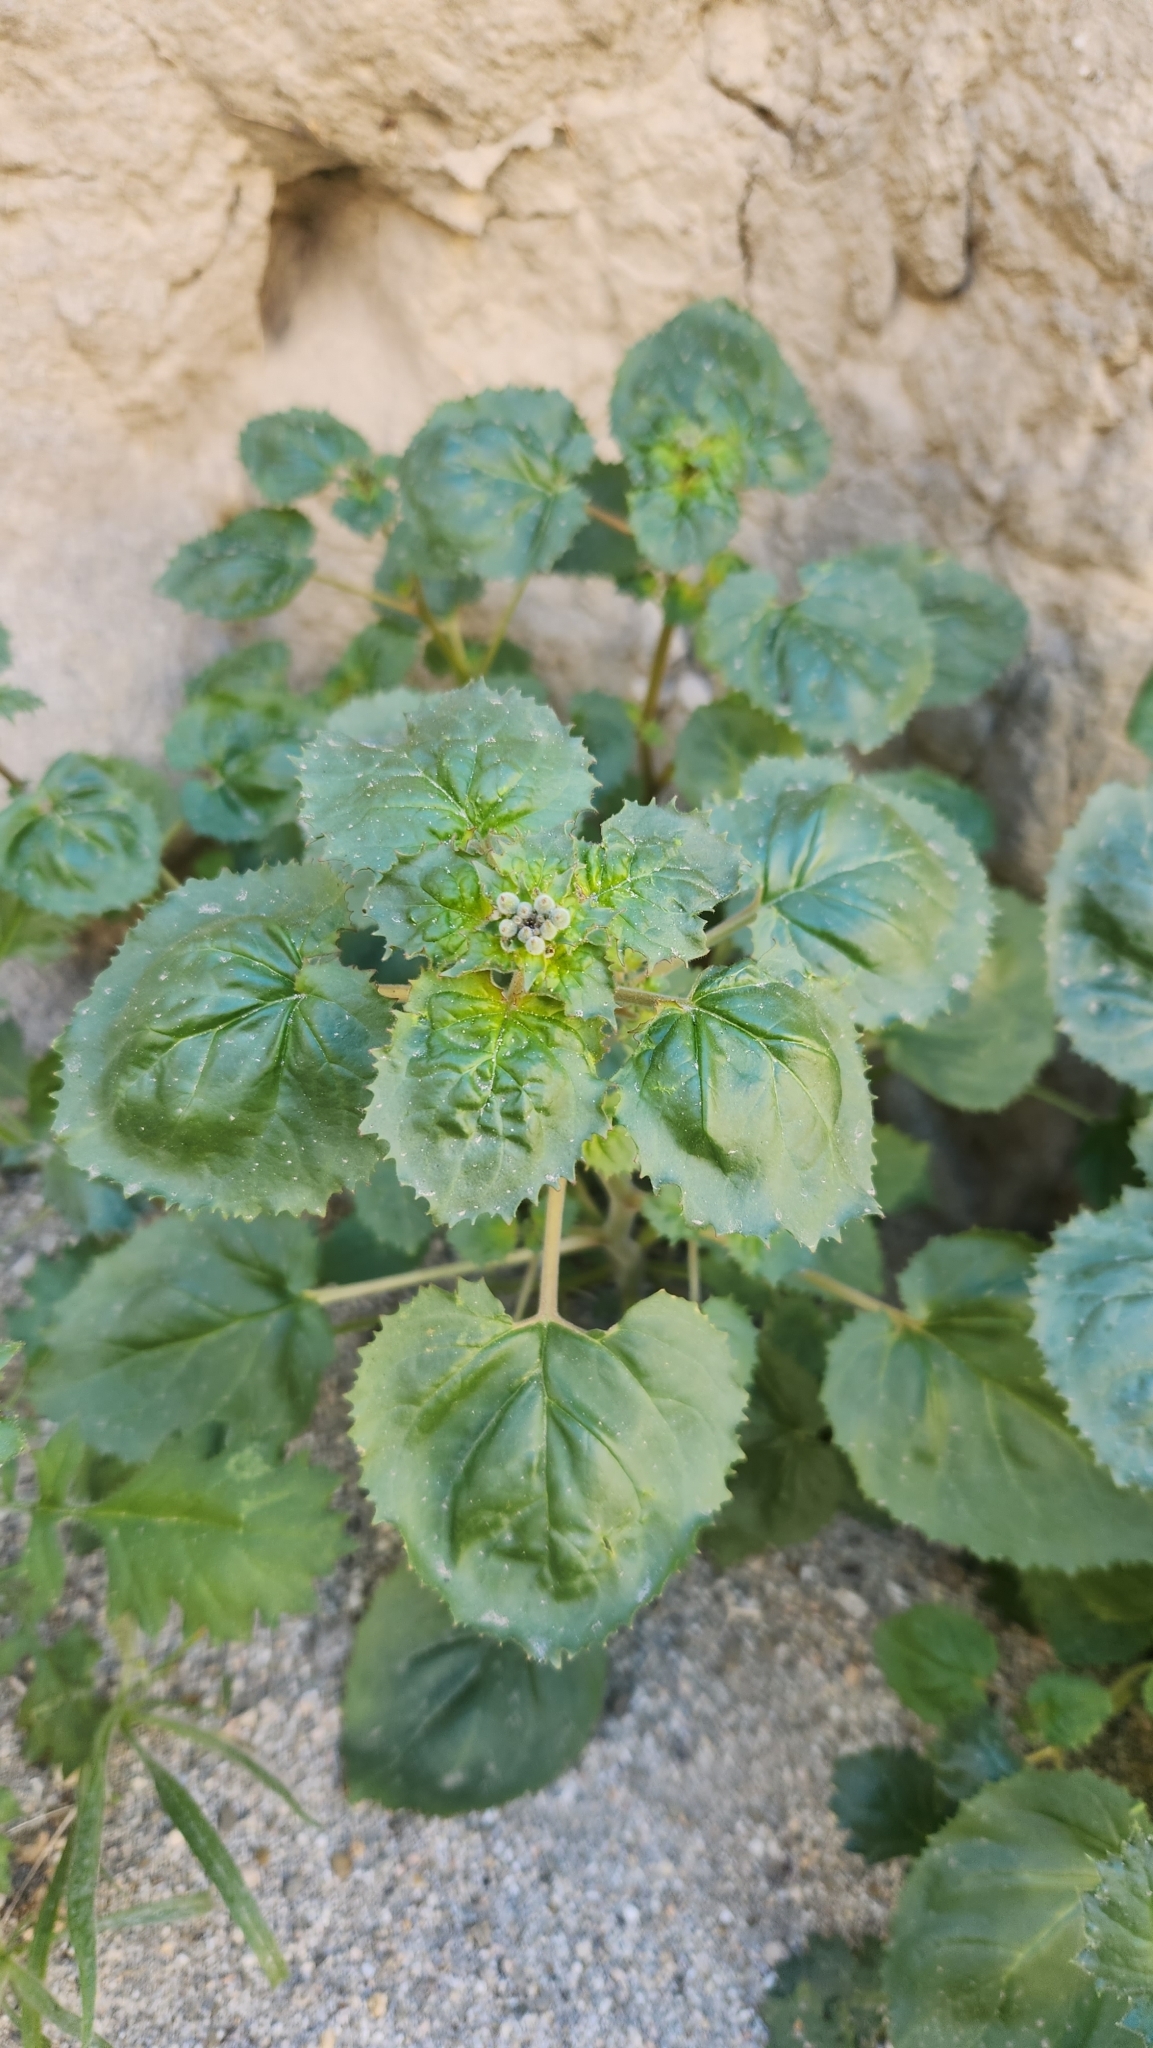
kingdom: Plantae
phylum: Tracheophyta
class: Magnoliopsida
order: Myrtales
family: Onagraceae
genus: Chylismia
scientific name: Chylismia cardiophylla
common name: Heartleaf suncup
